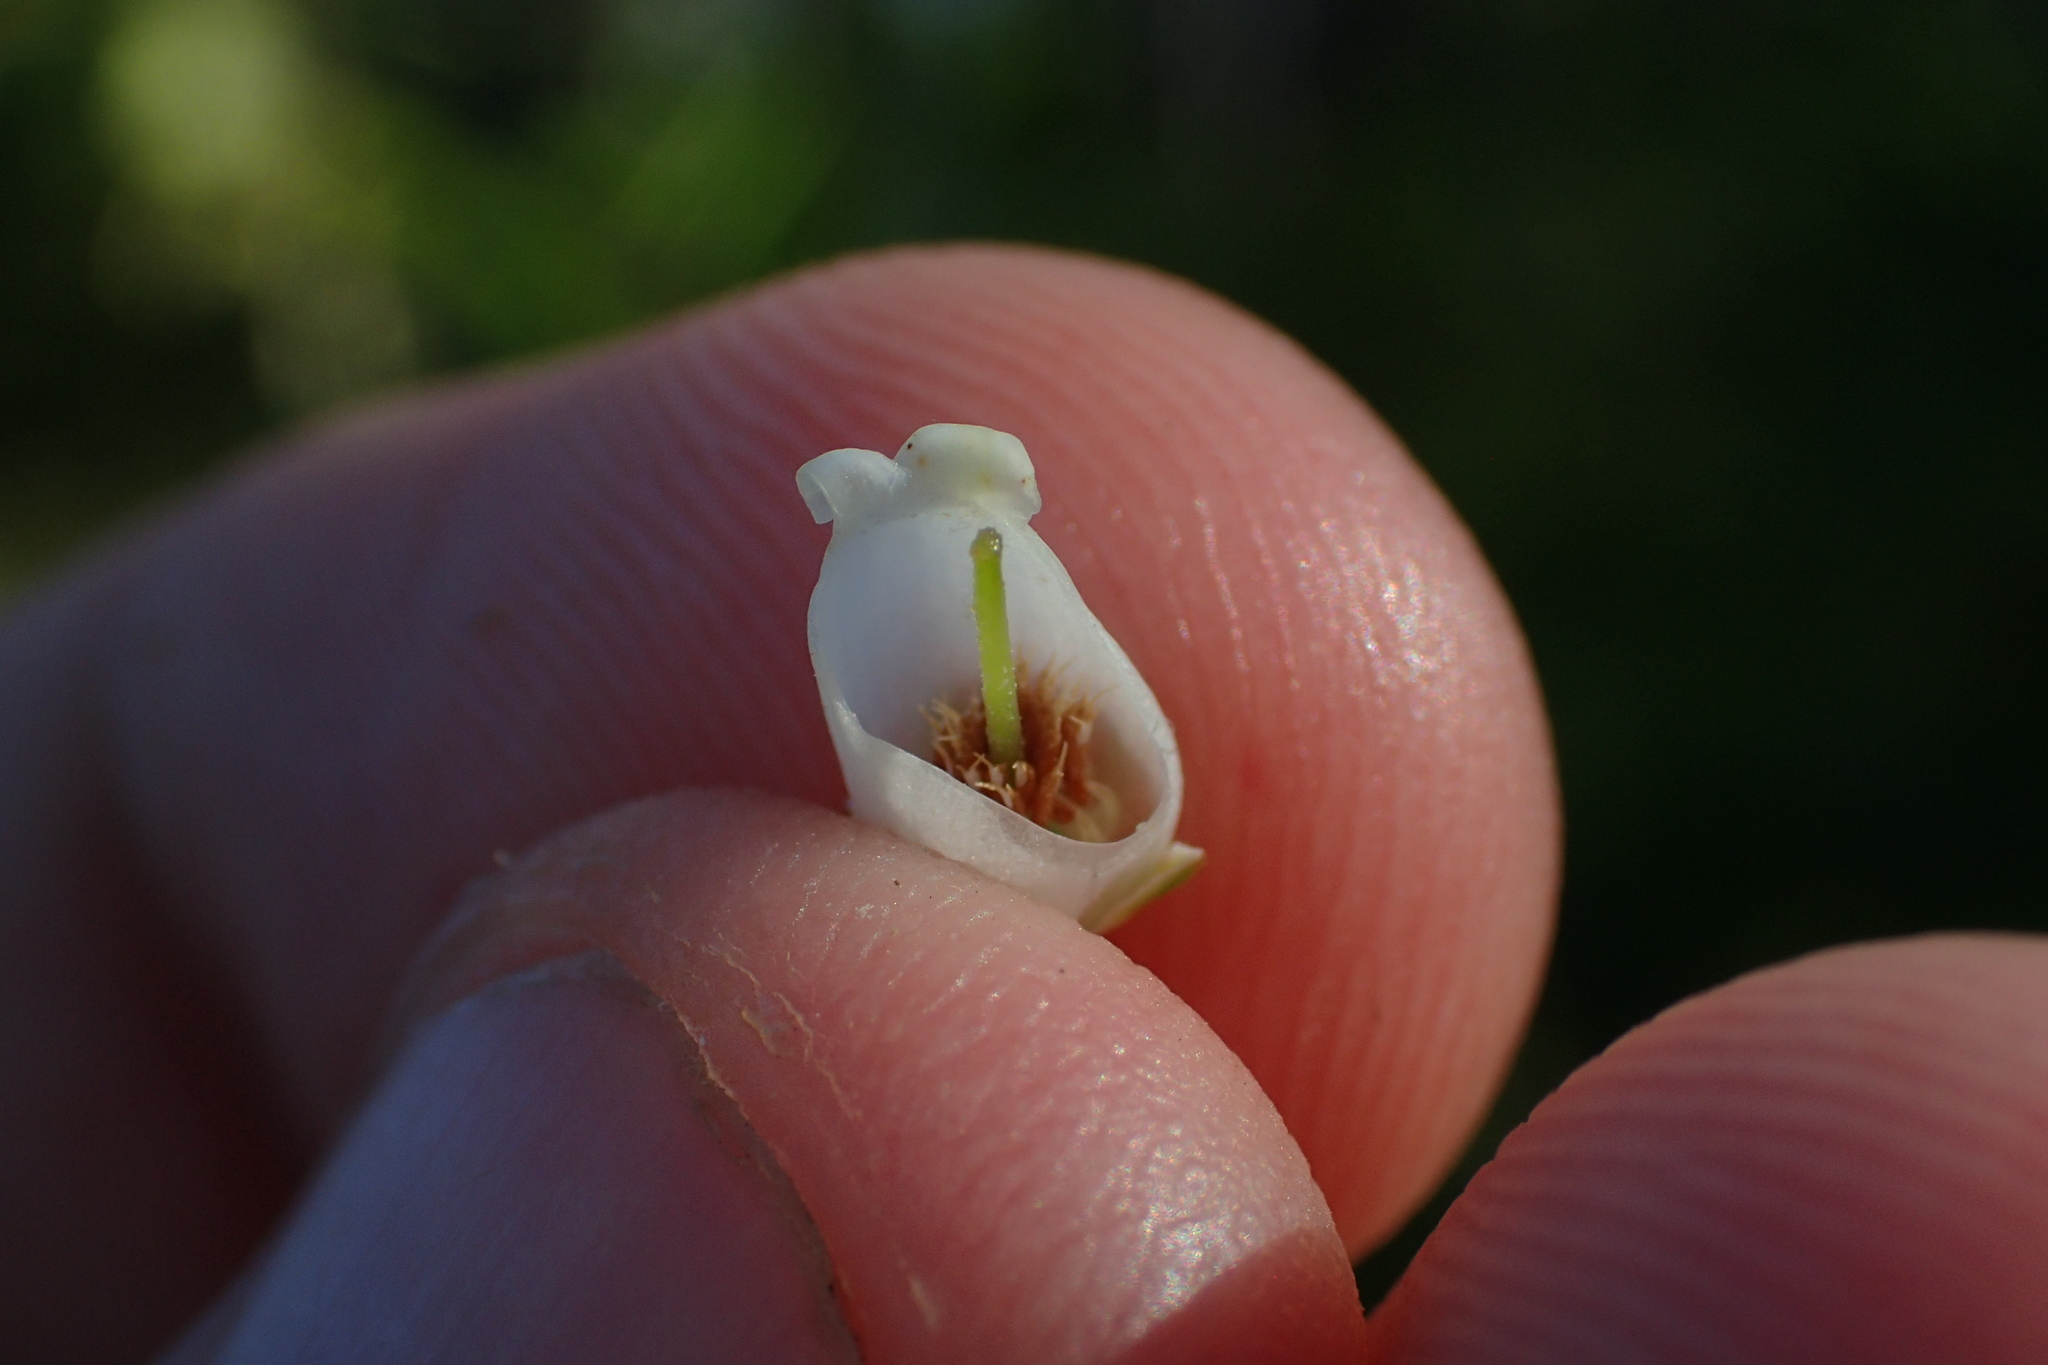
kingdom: Plantae
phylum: Tracheophyta
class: Magnoliopsida
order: Ericales
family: Ericaceae
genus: Eubotrys
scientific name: Eubotrys racemosa
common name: Fetterbush
